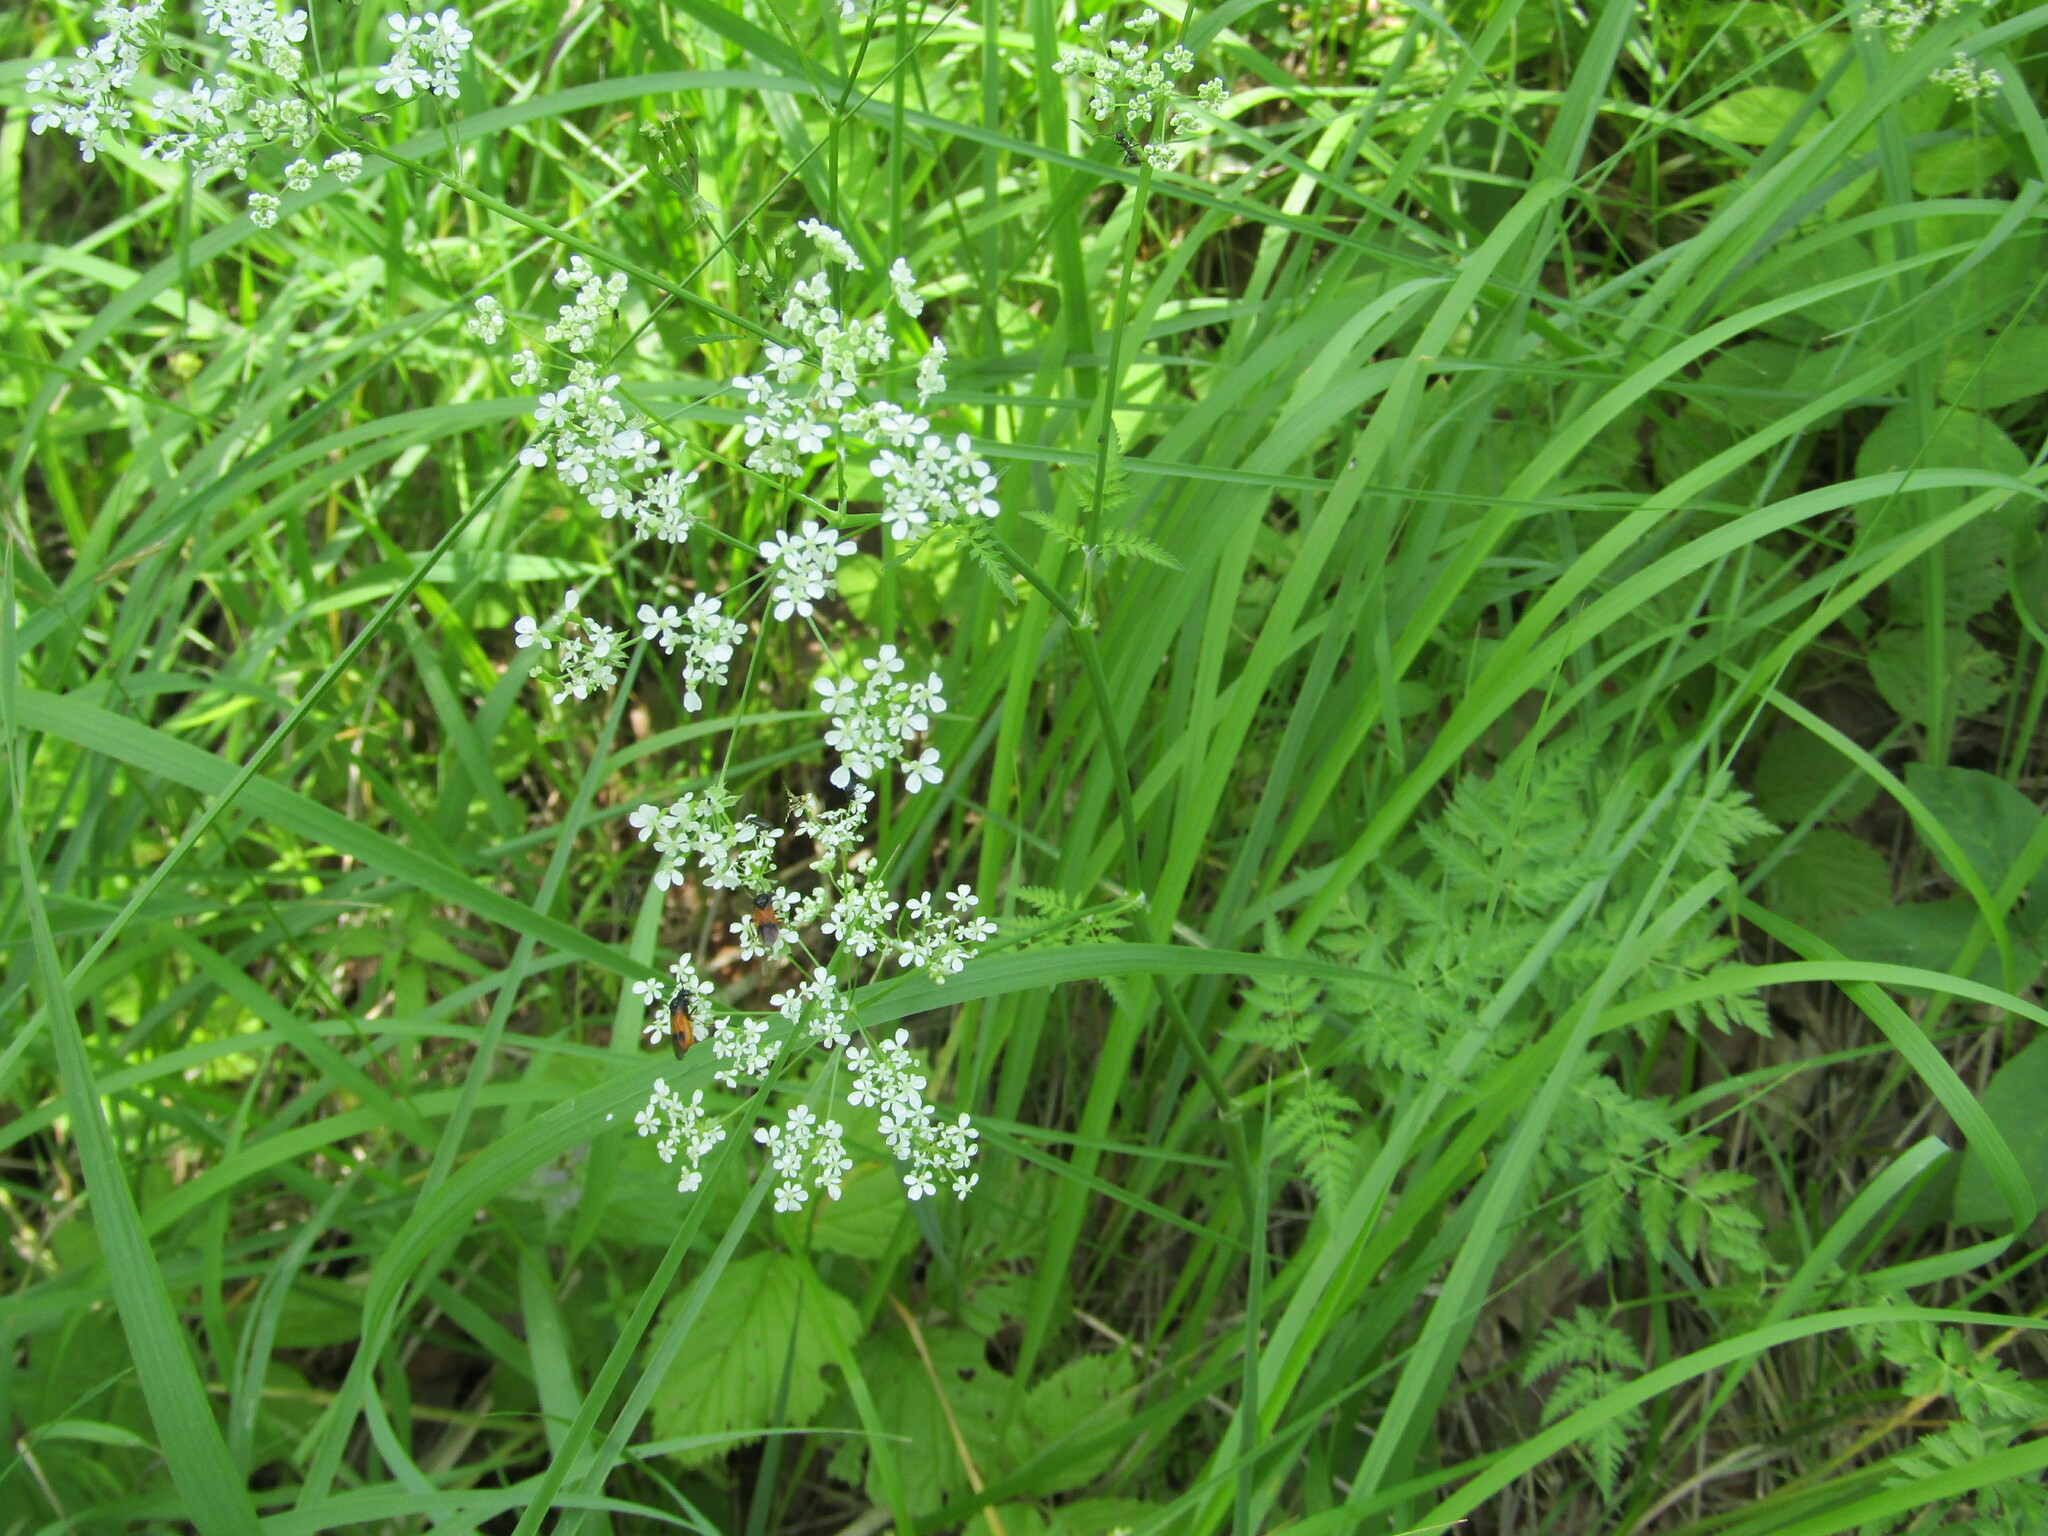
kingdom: Plantae
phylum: Tracheophyta
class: Magnoliopsida
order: Apiales
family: Apiaceae
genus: Anthriscus
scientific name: Anthriscus sylvestris
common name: Cow parsley
